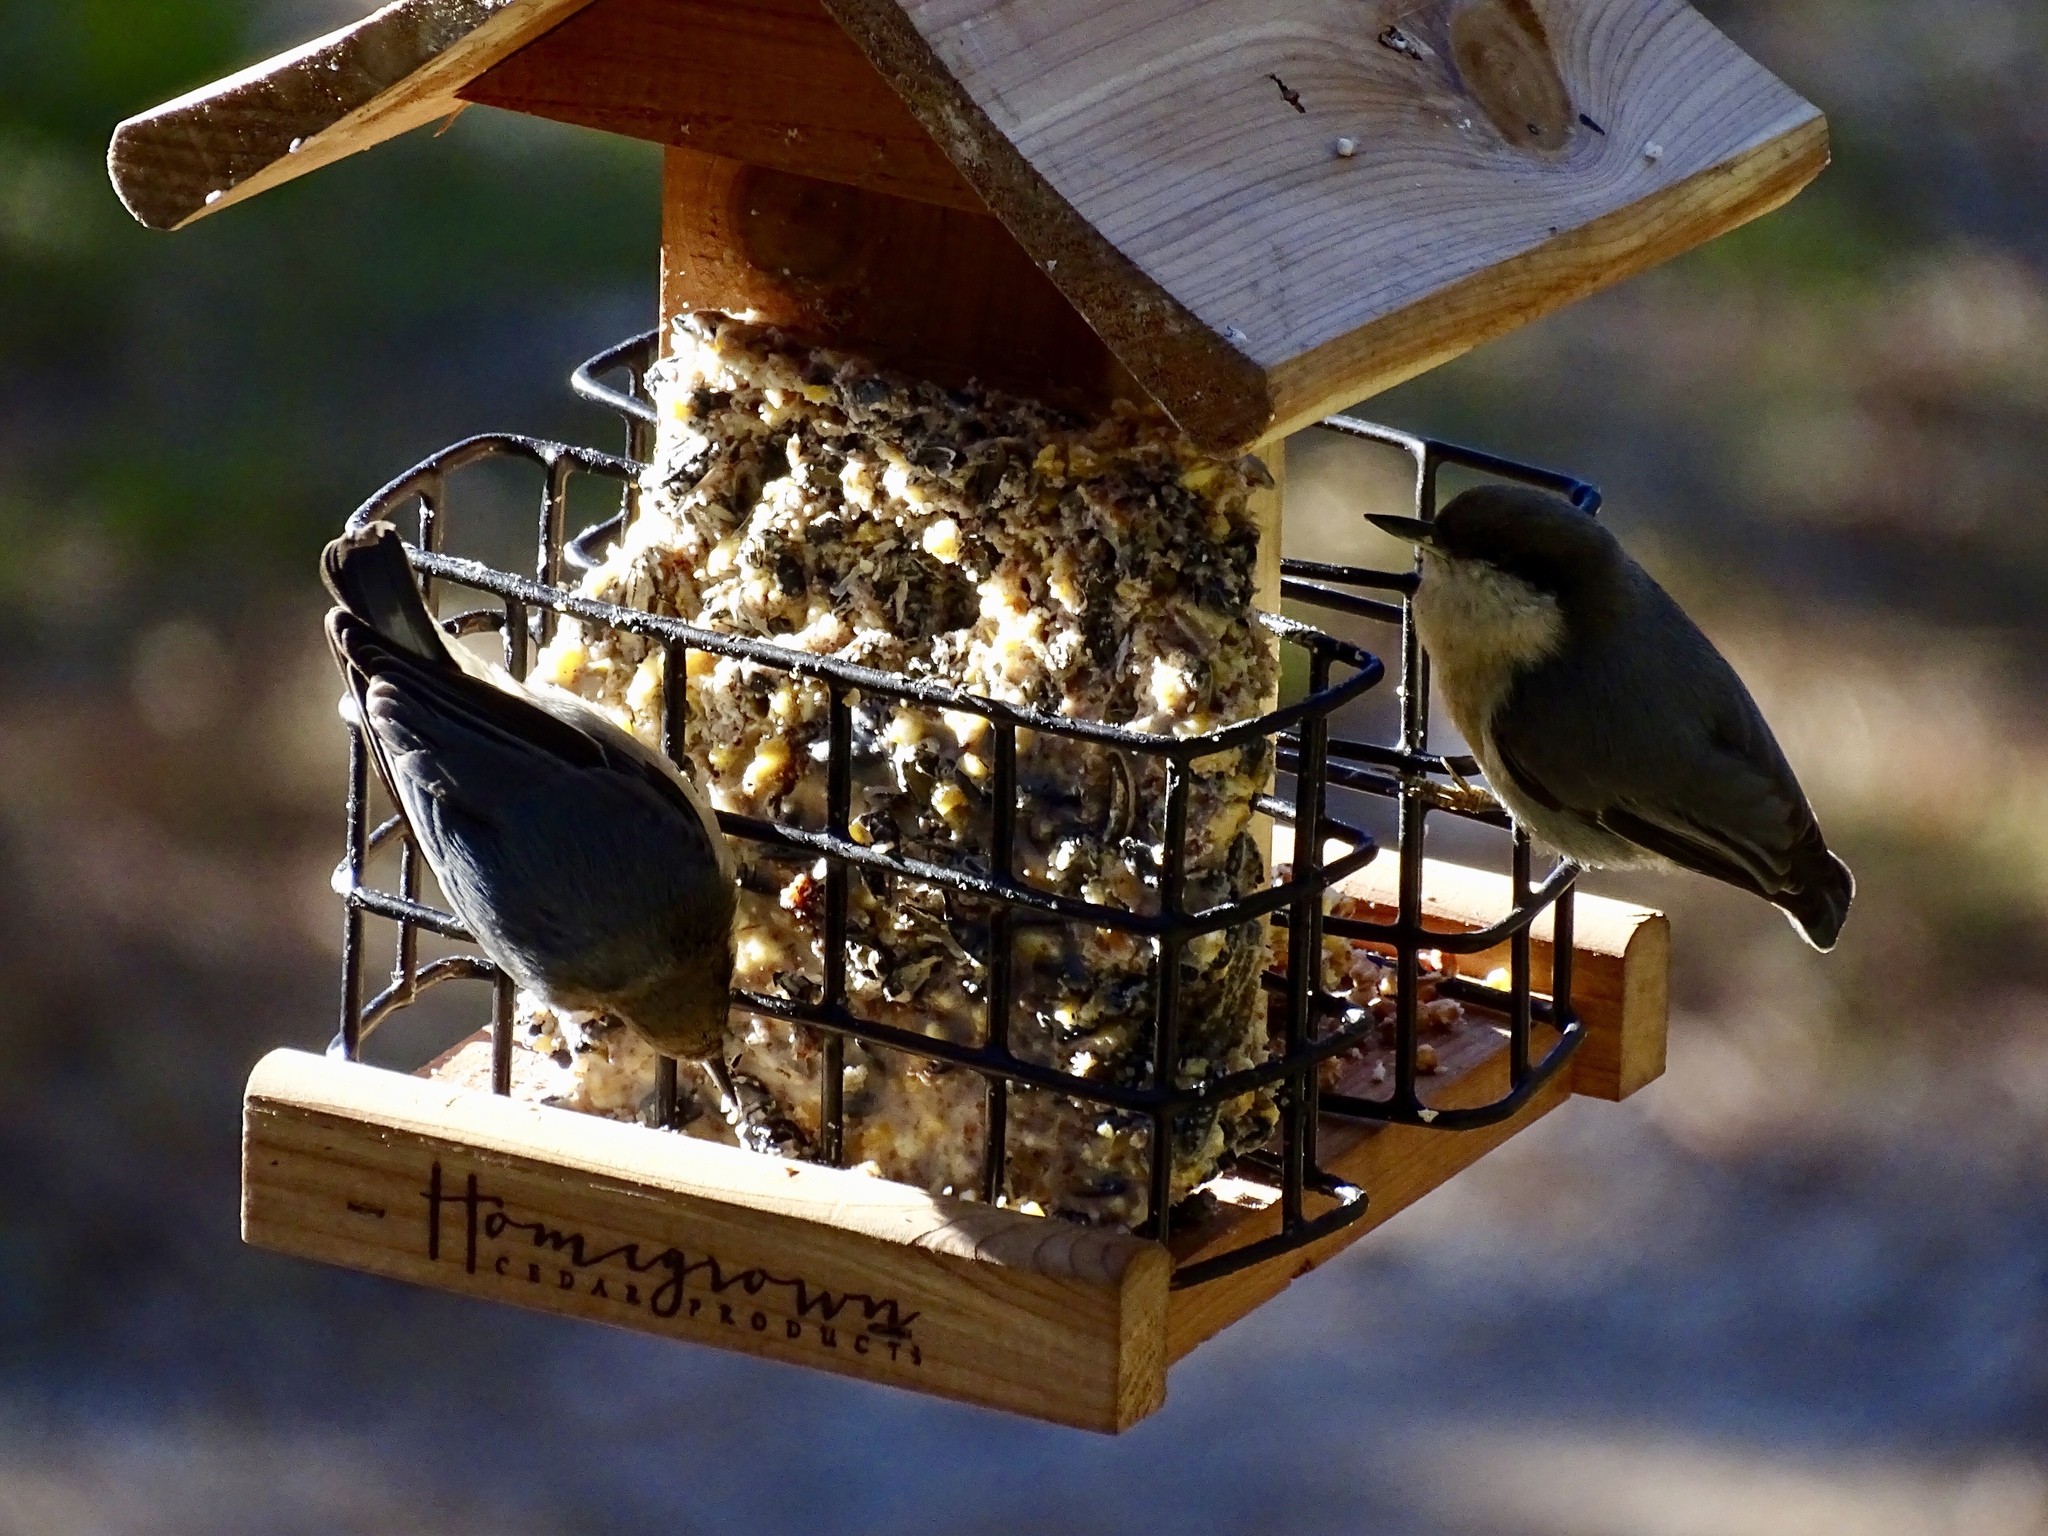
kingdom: Animalia
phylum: Chordata
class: Aves
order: Passeriformes
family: Sittidae
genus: Sitta
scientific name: Sitta pygmaea
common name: Pygmy nuthatch
